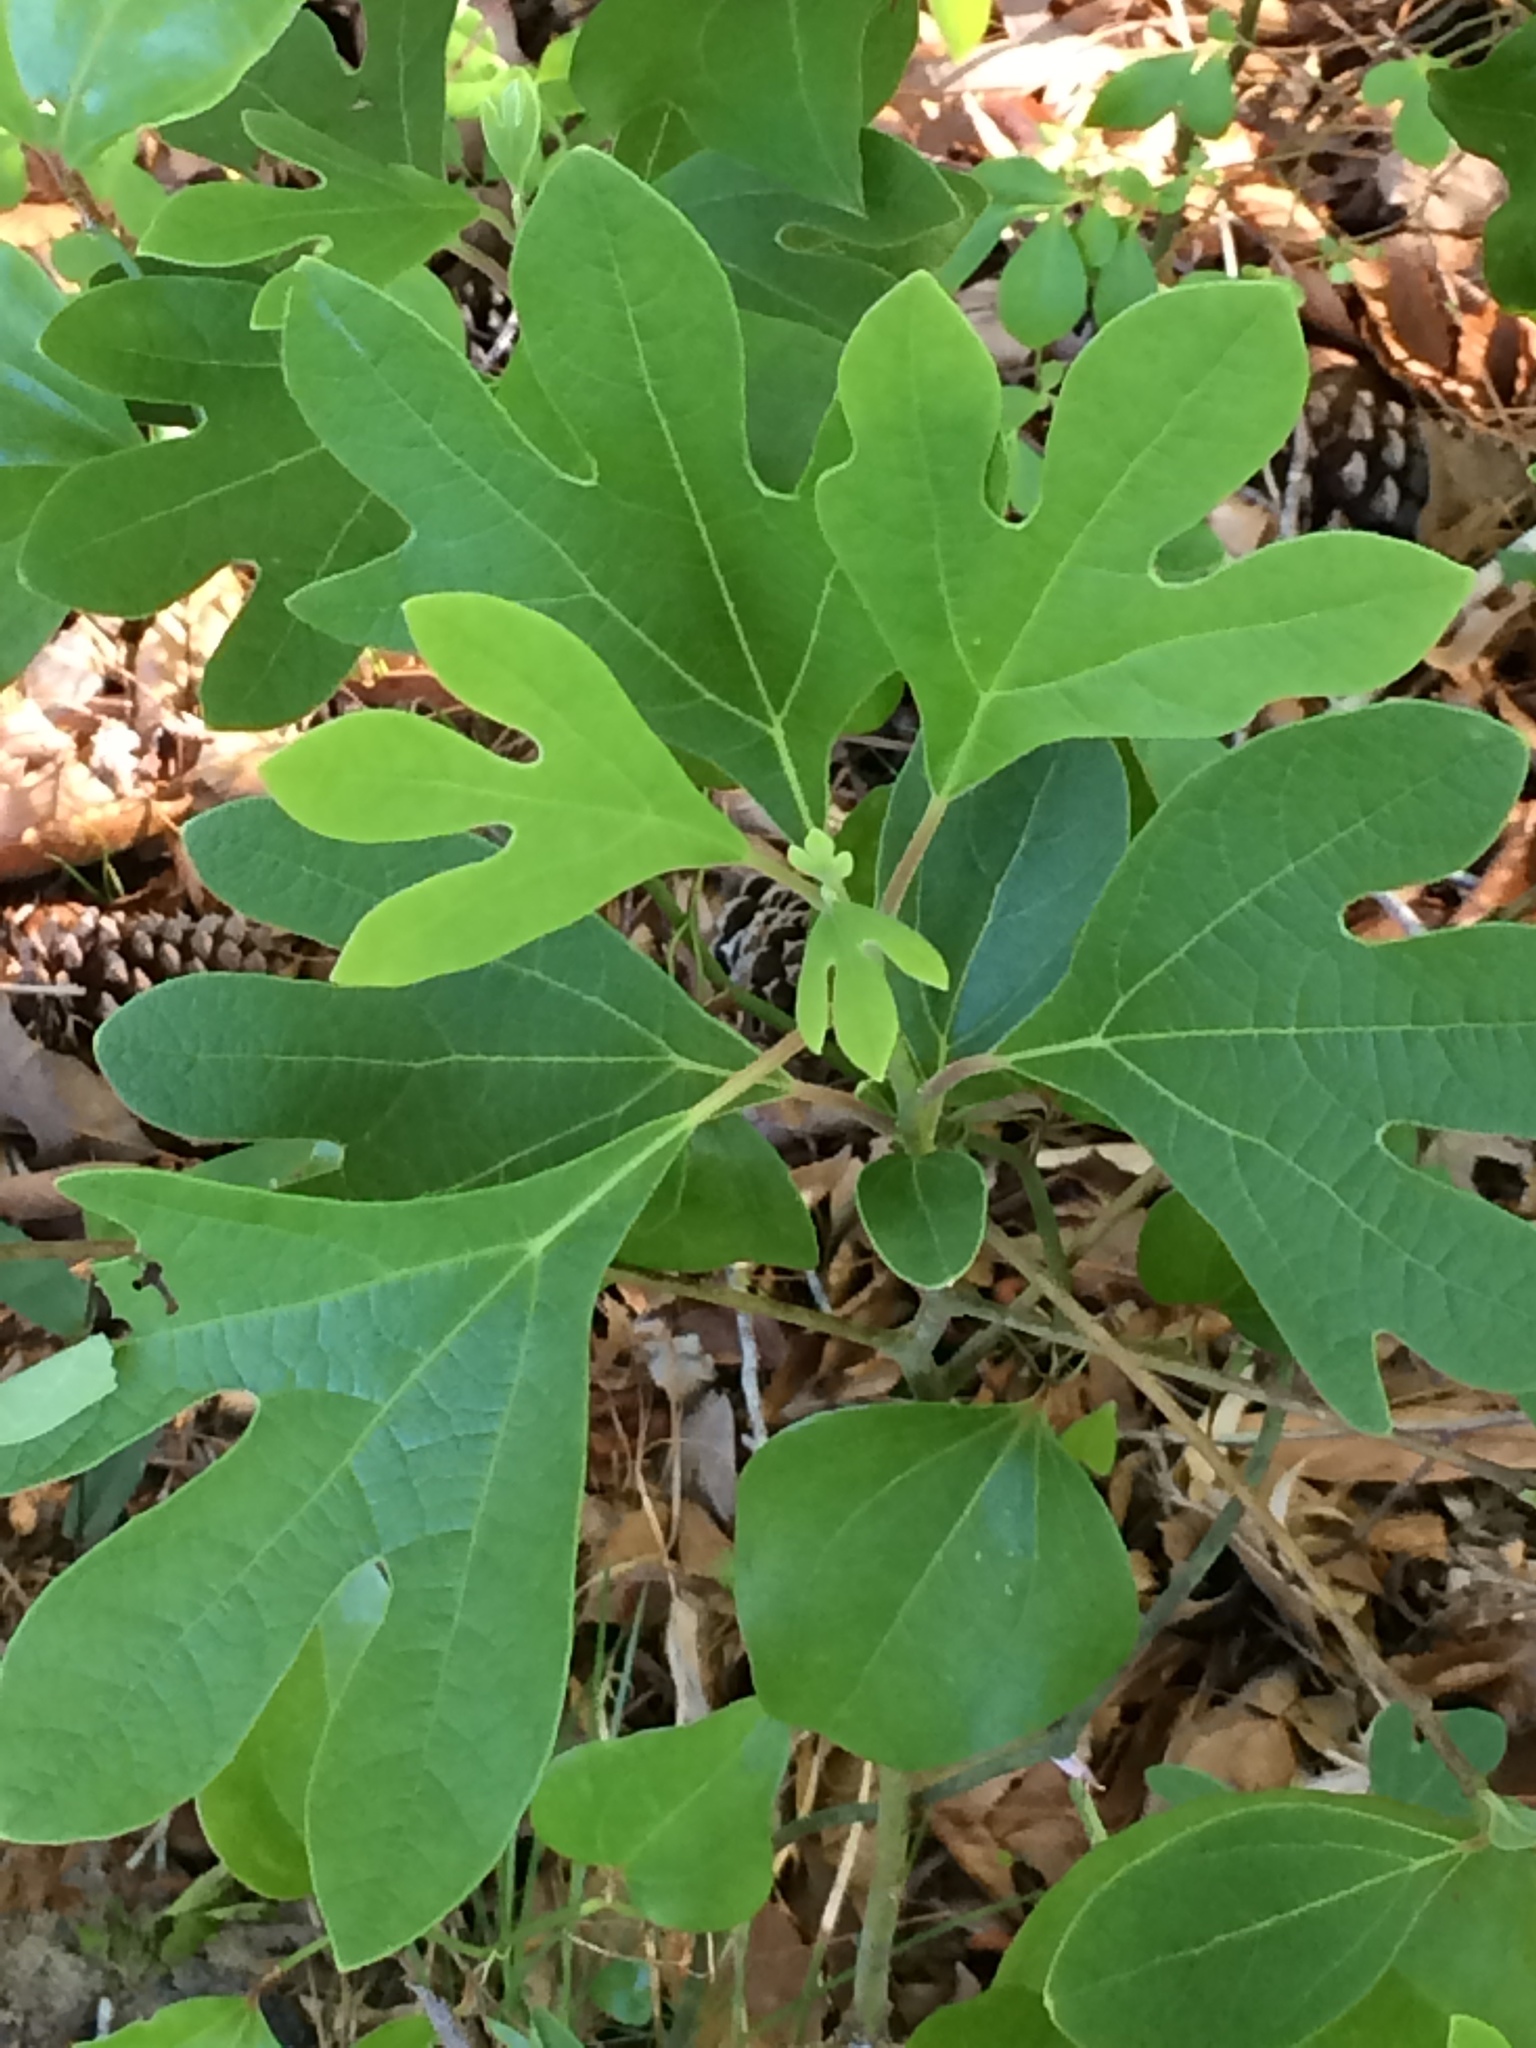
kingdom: Plantae
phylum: Tracheophyta
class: Magnoliopsida
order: Laurales
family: Lauraceae
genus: Sassafras
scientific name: Sassafras albidum
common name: Sassafras
